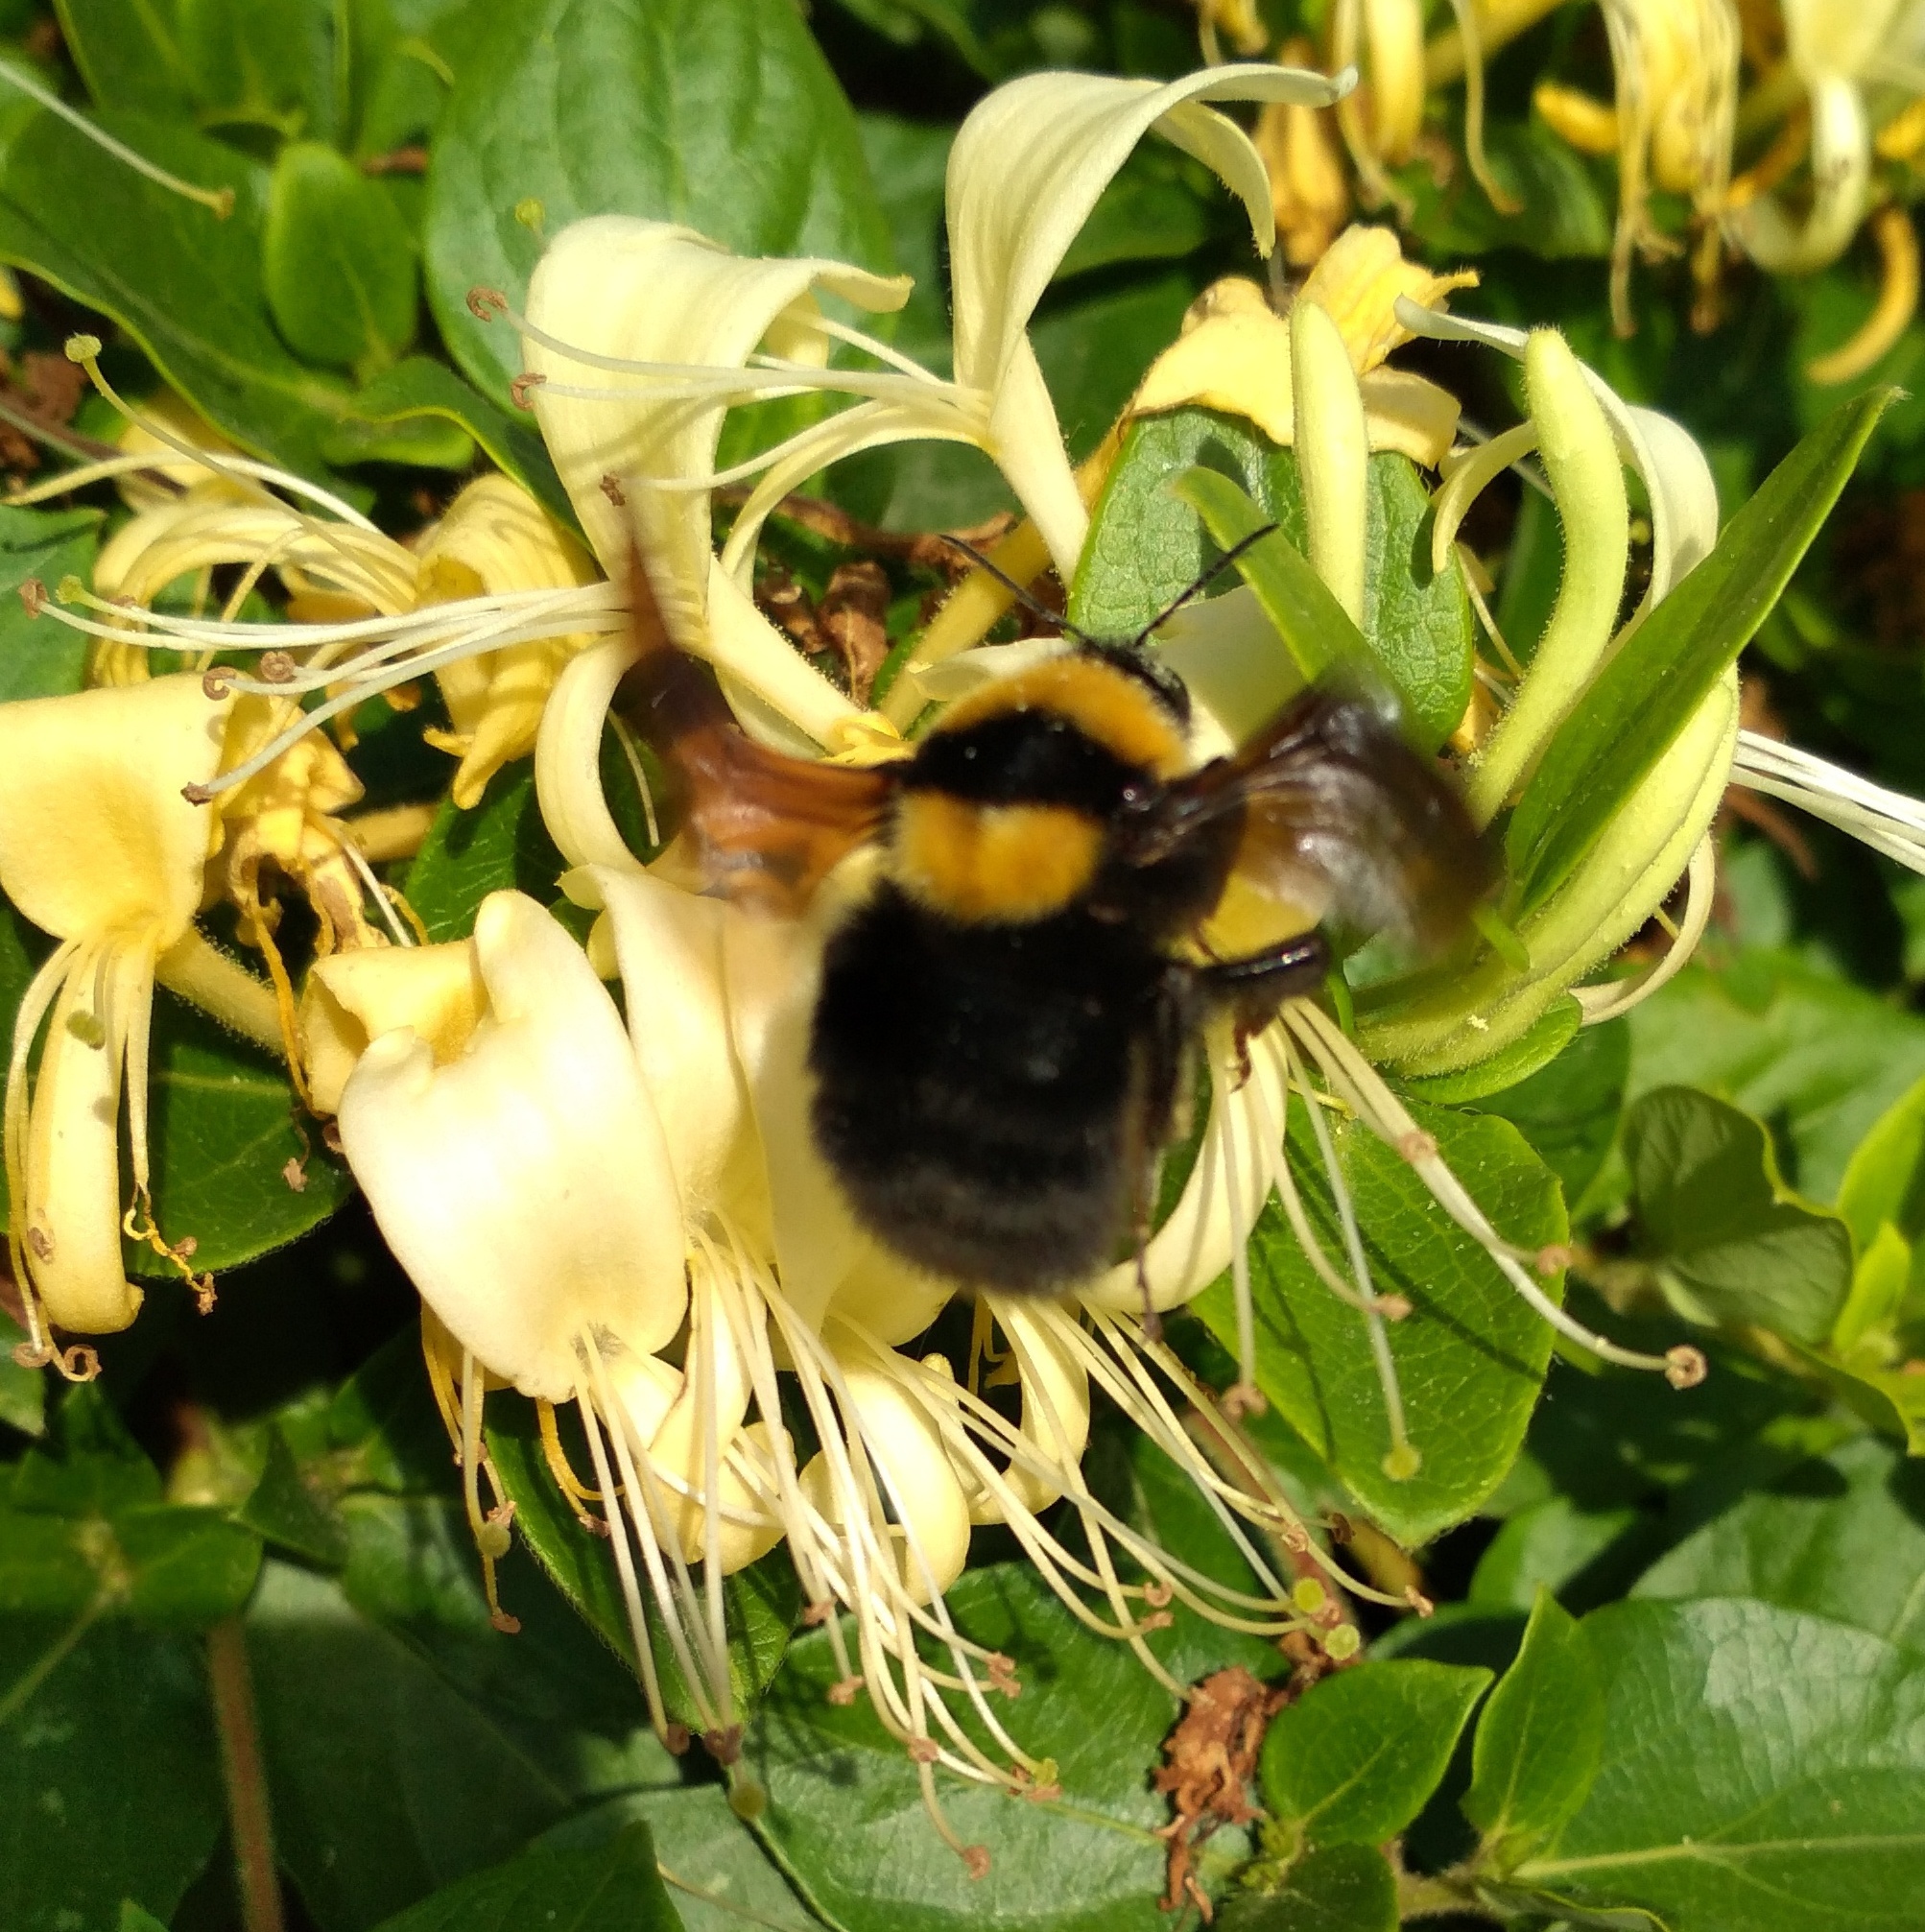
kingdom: Animalia
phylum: Arthropoda
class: Insecta
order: Hymenoptera
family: Apidae
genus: Bombus
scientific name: Bombus argillaceus
